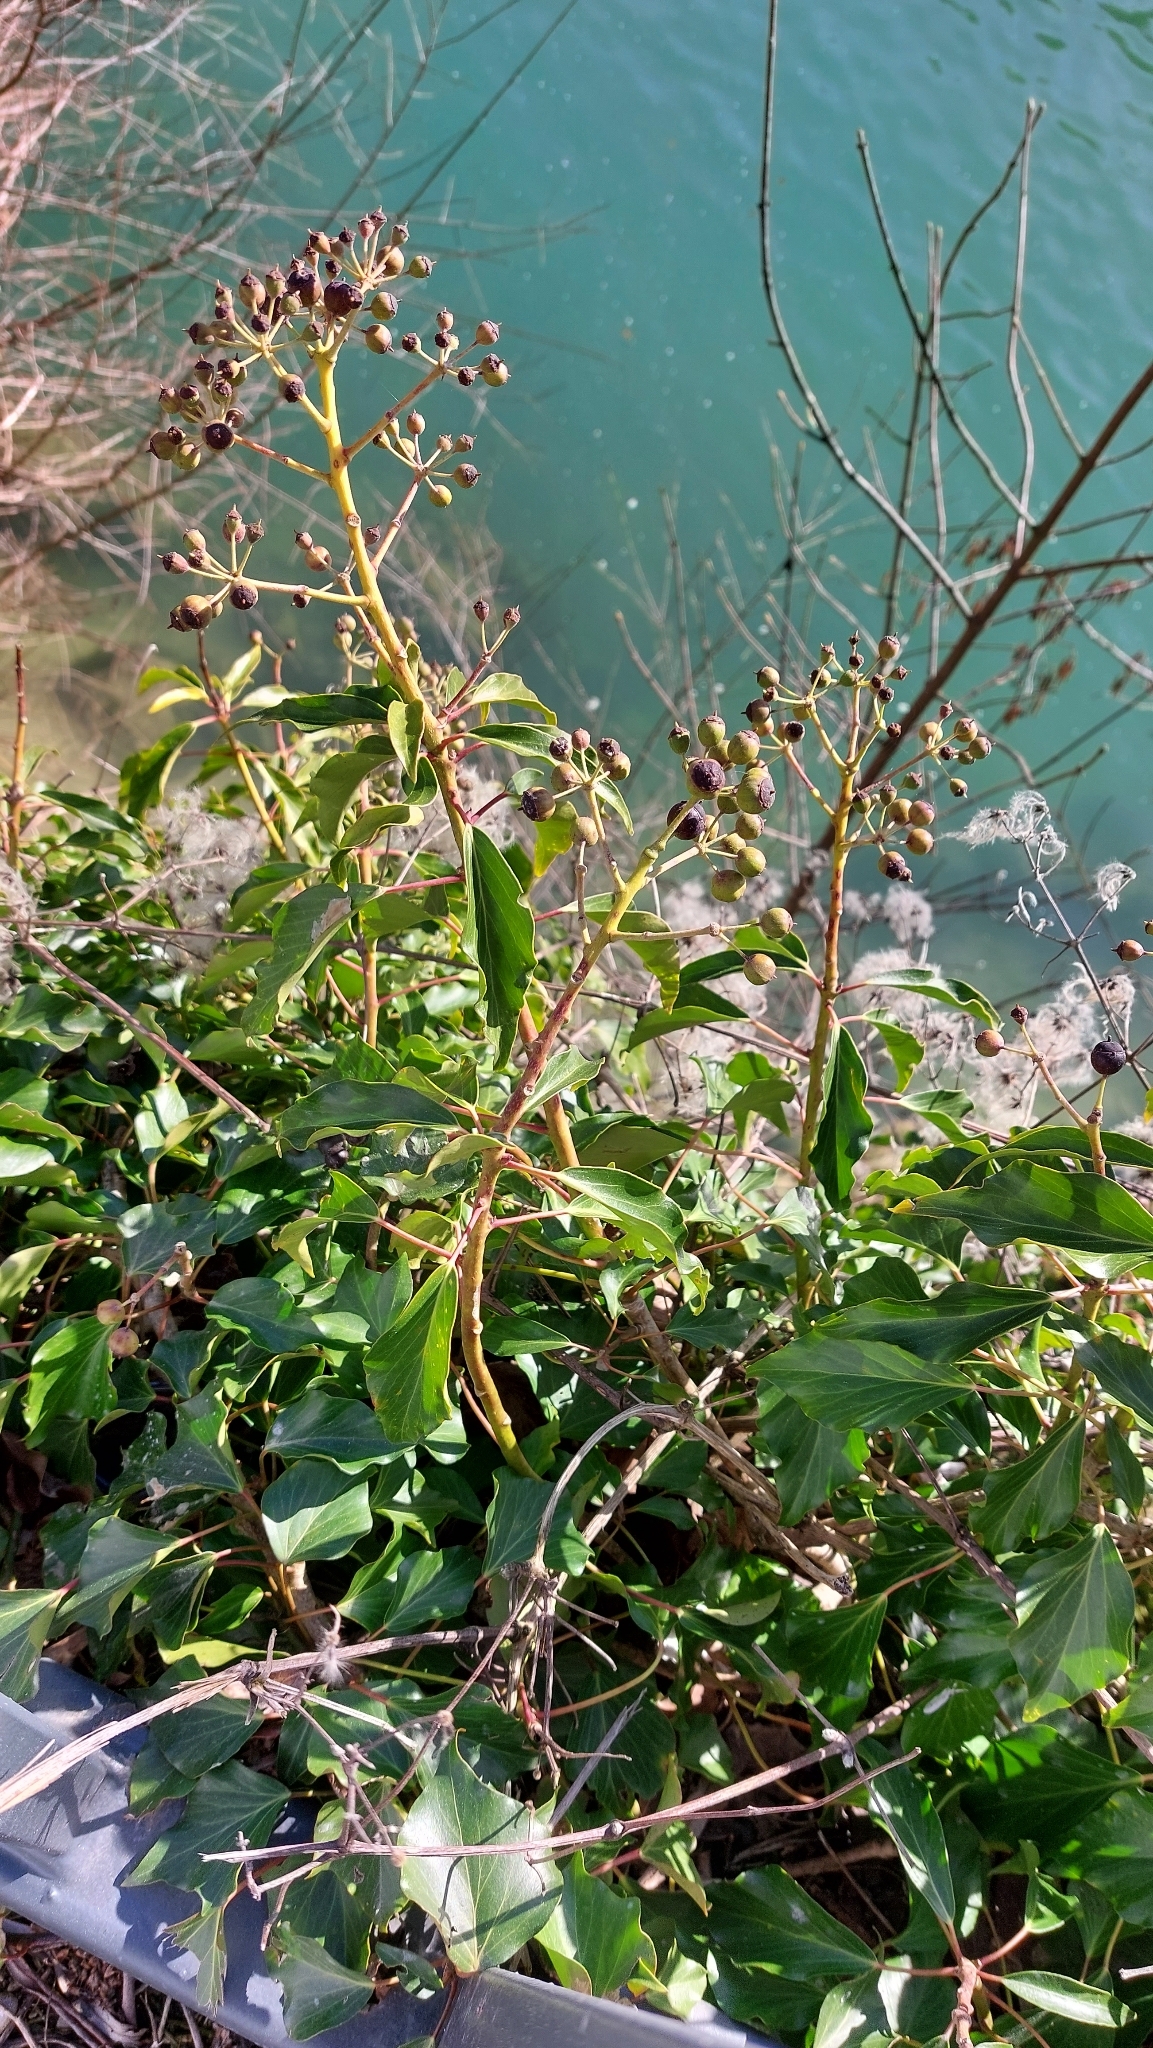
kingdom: Plantae
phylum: Tracheophyta
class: Magnoliopsida
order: Apiales
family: Araliaceae
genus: Hedera
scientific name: Hedera helix
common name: Ivy
